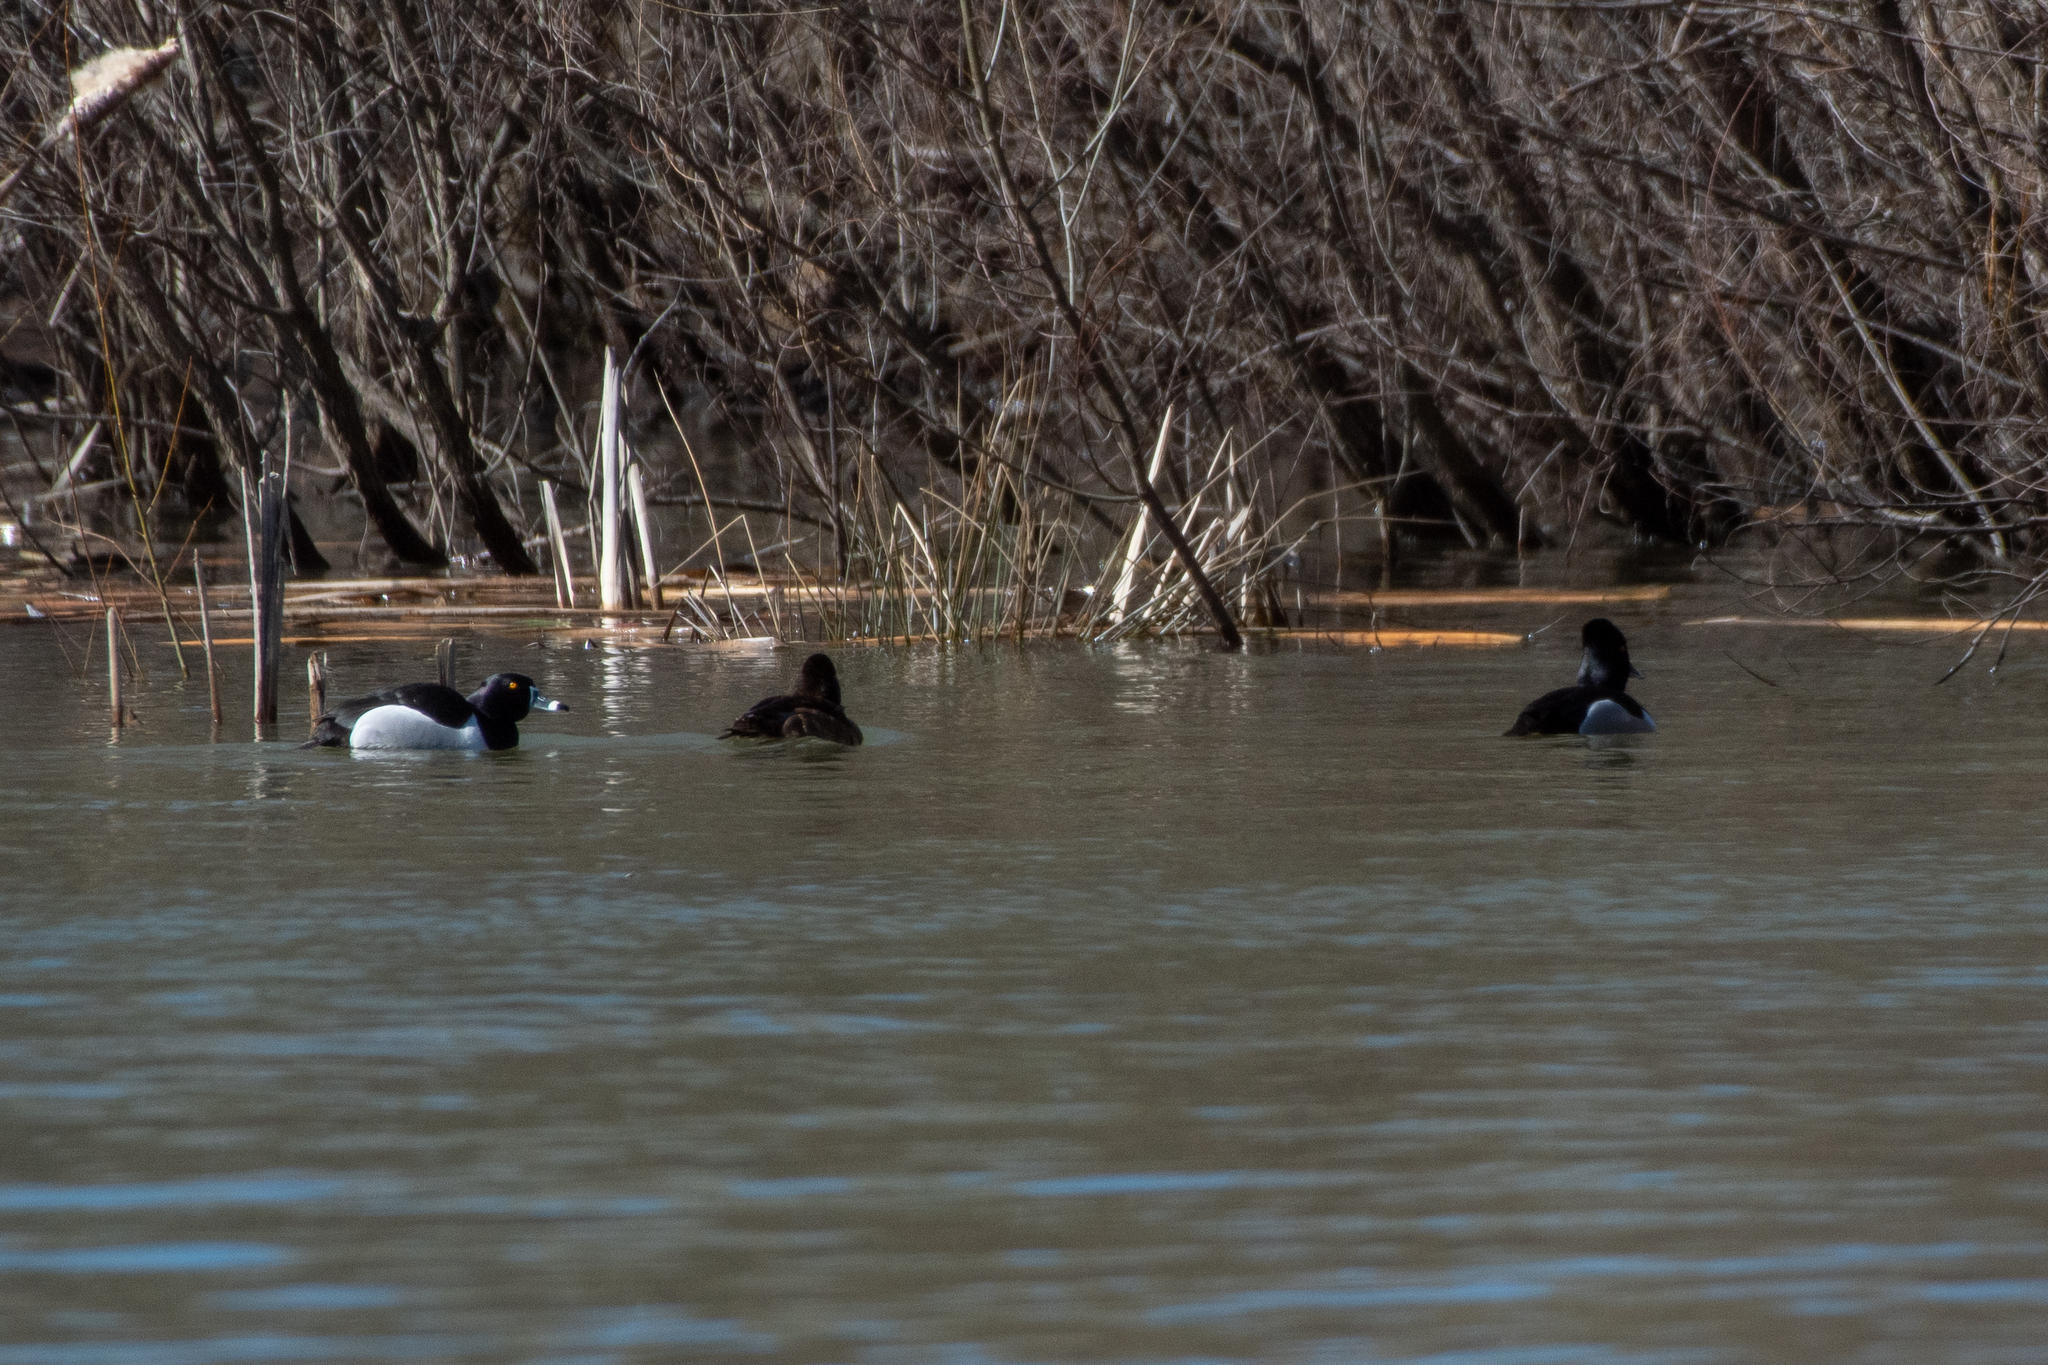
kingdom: Animalia
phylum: Chordata
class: Aves
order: Anseriformes
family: Anatidae
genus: Aythya
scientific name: Aythya collaris
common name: Ring-necked duck
